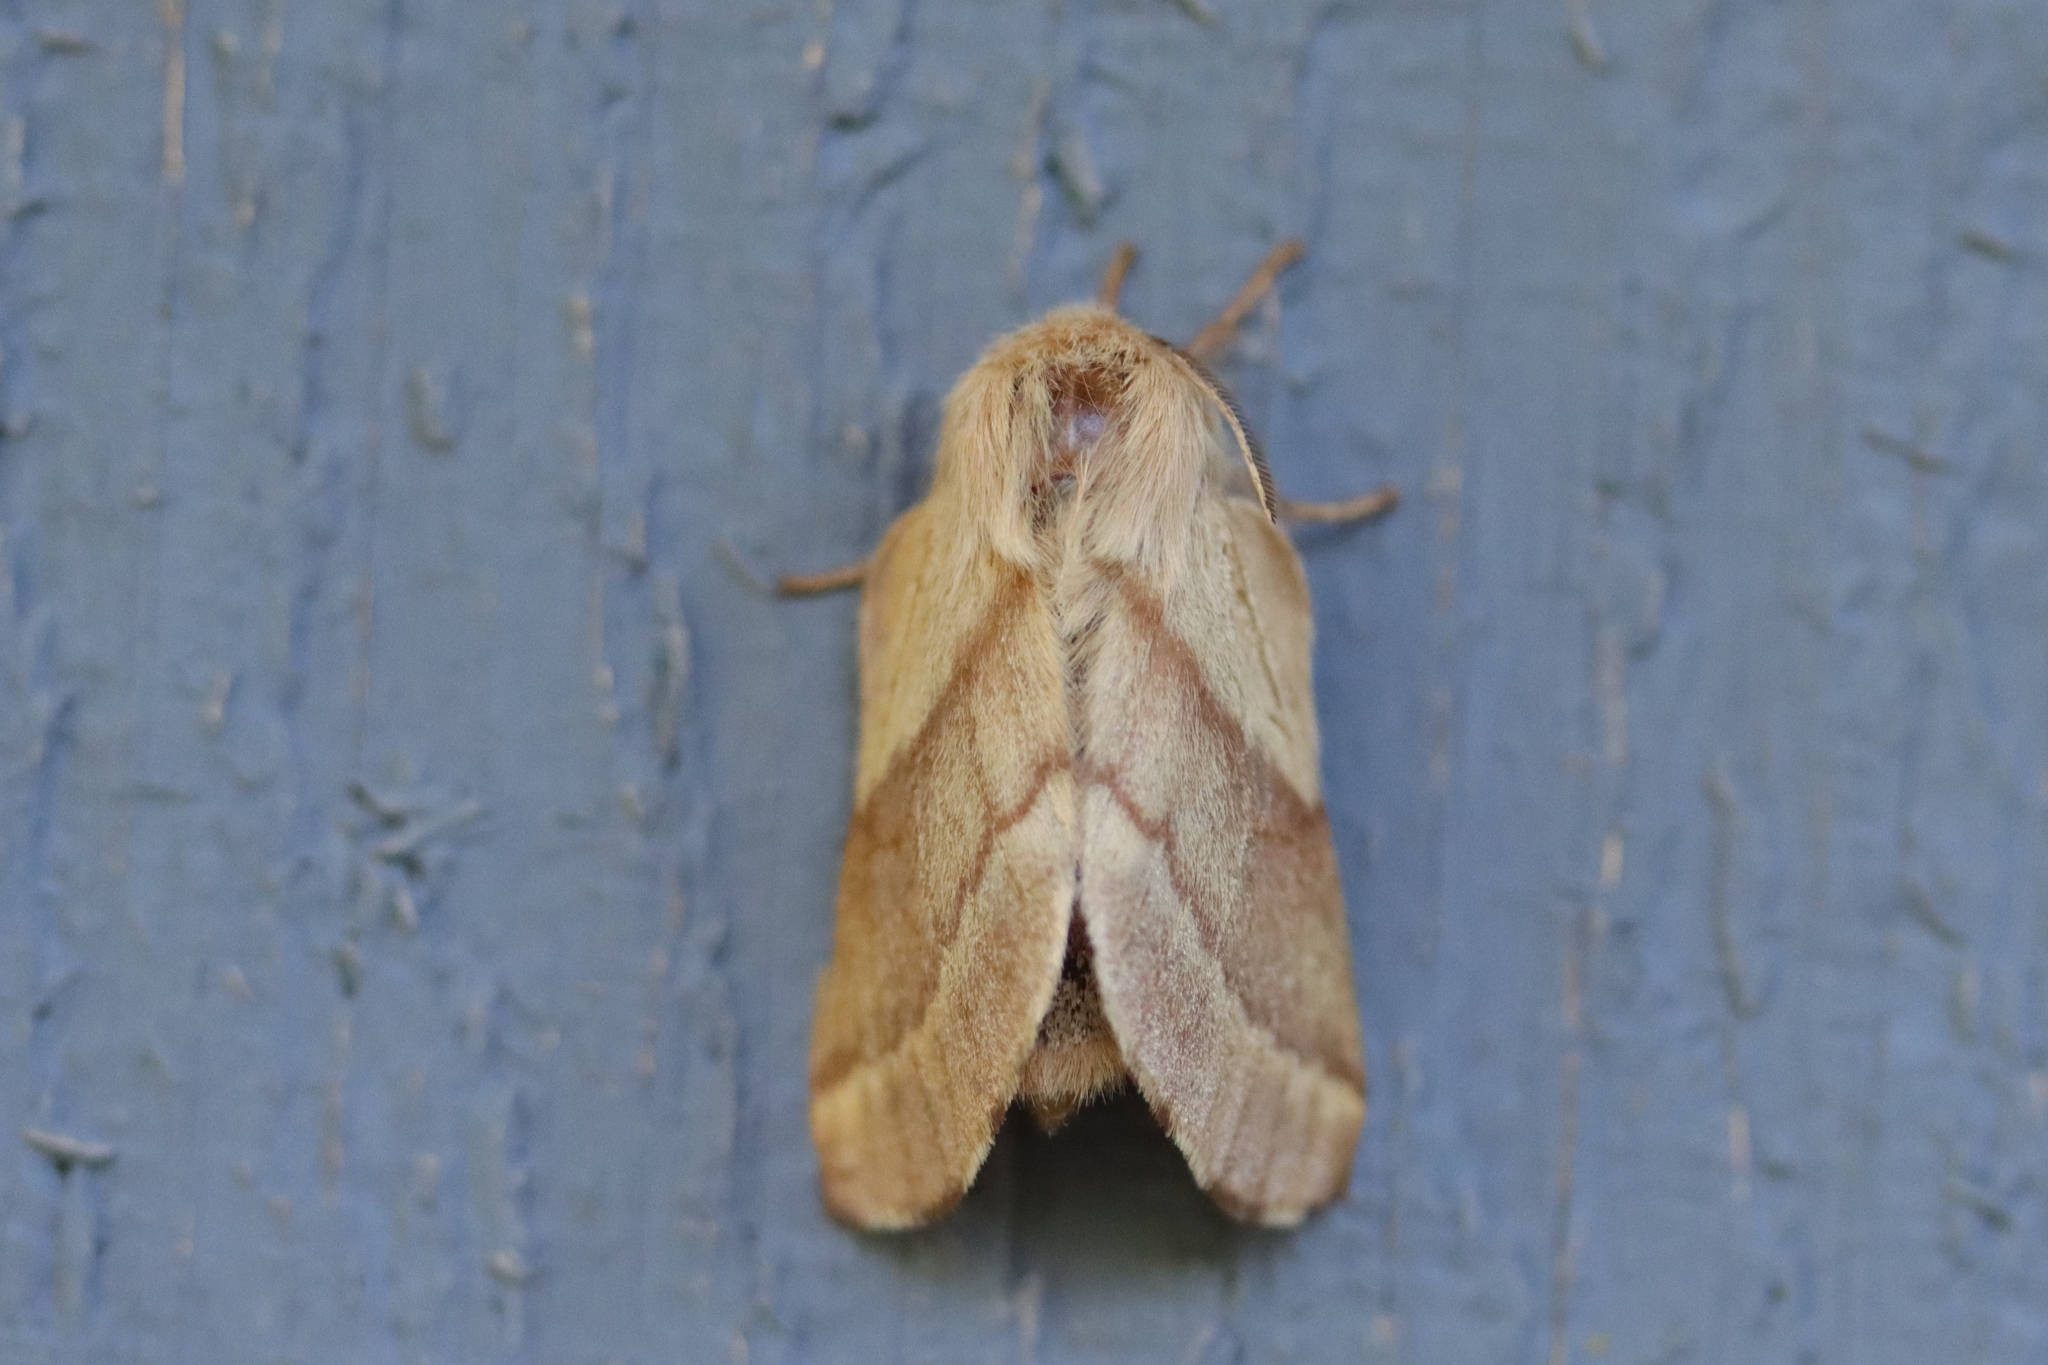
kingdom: Animalia
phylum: Arthropoda
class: Insecta
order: Lepidoptera
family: Lasiocampidae
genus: Malacosoma
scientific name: Malacosoma disstria
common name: Forest tent caterpillar
